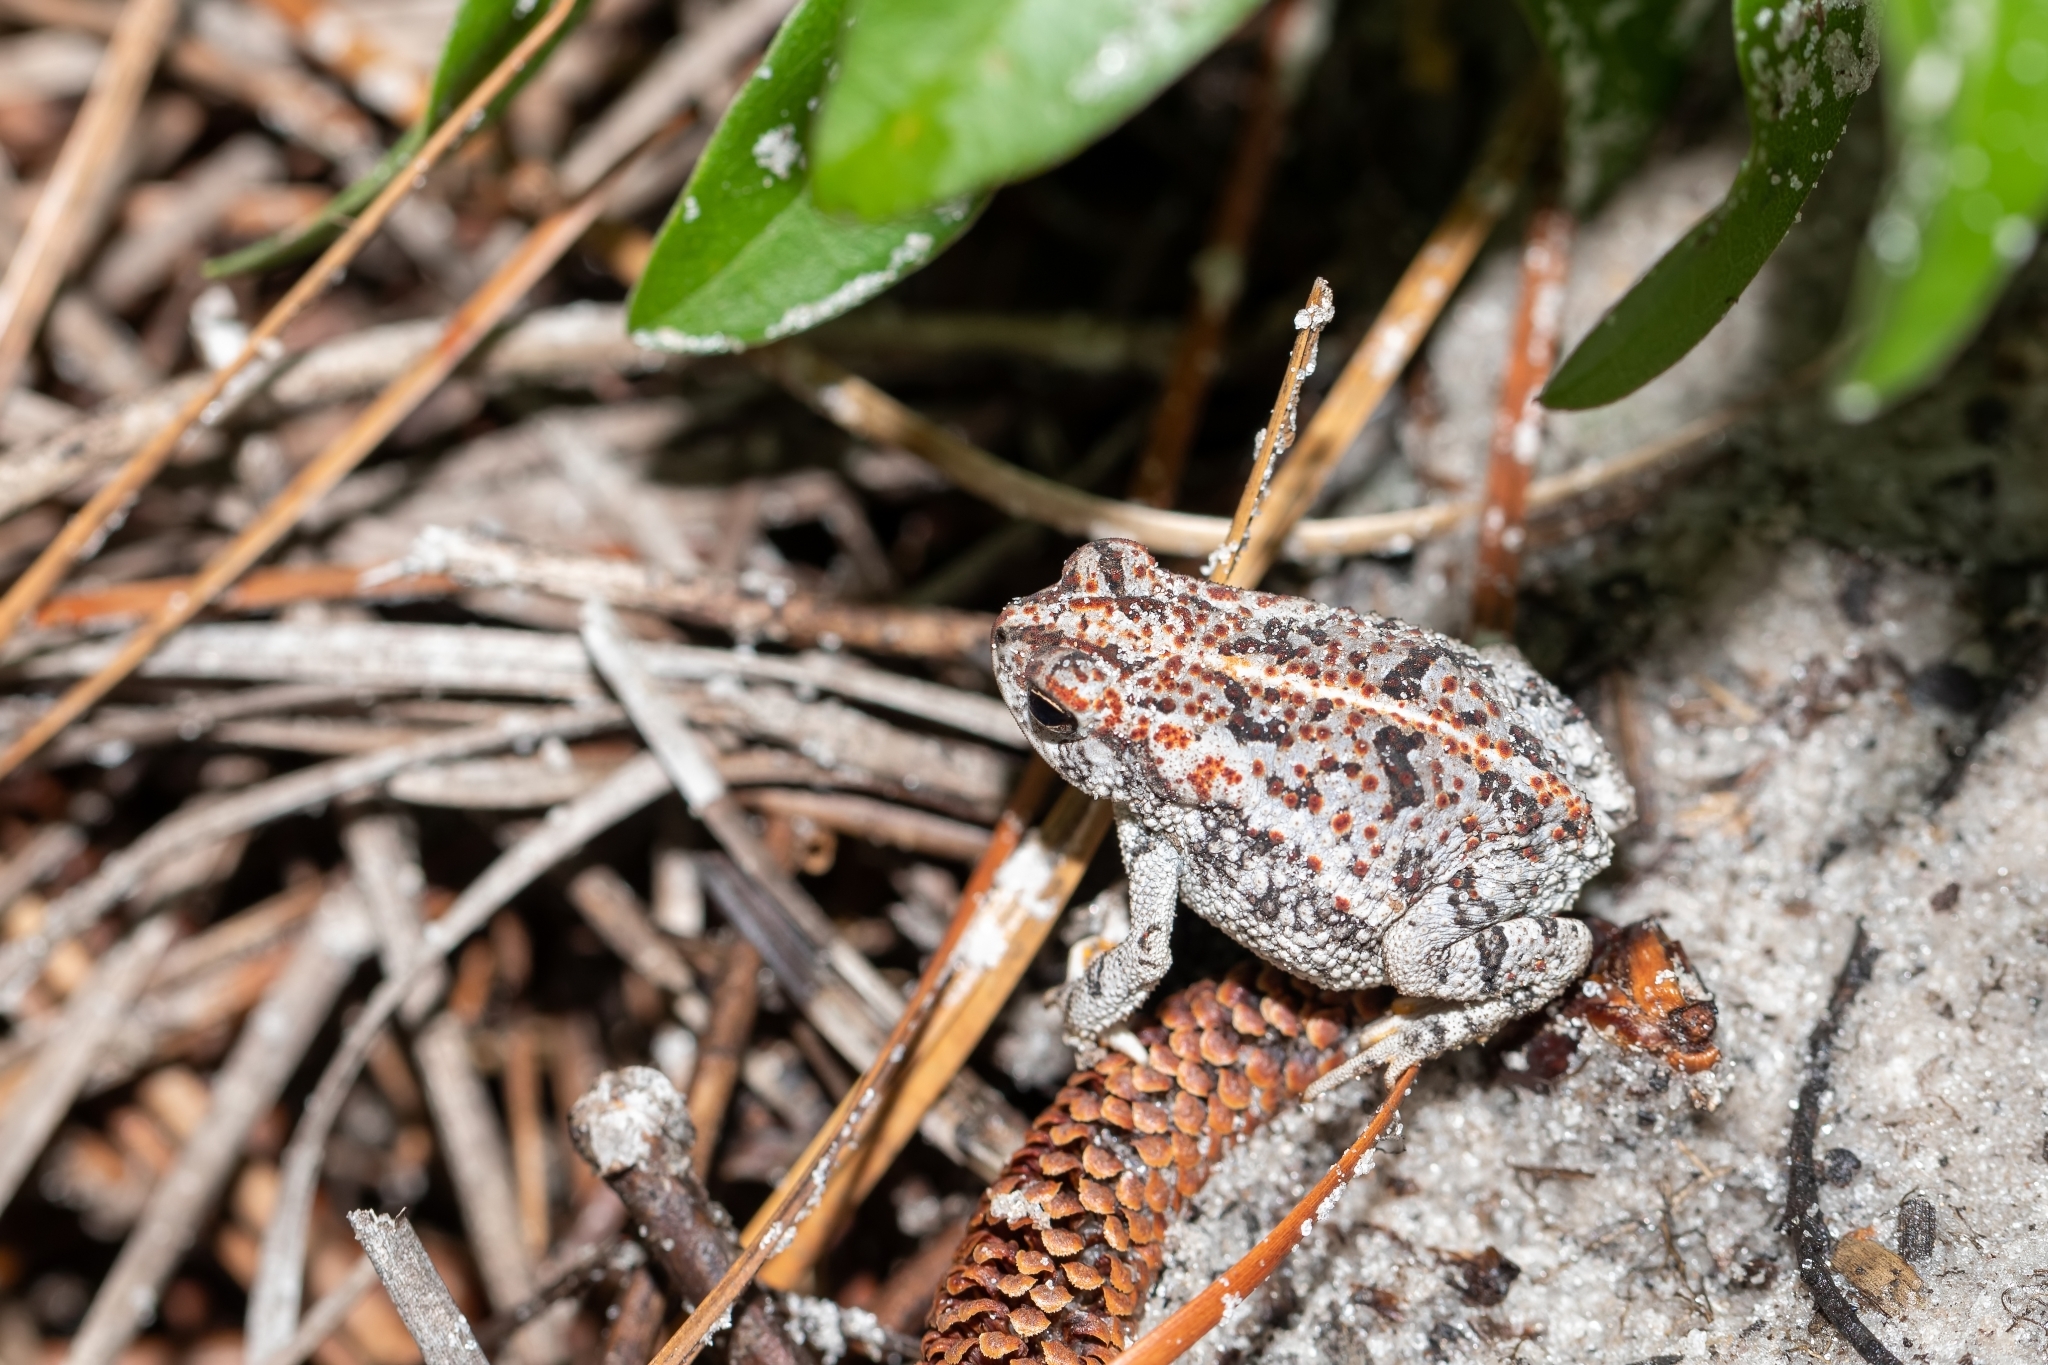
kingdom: Animalia
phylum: Chordata
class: Amphibia
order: Anura
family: Bufonidae
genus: Anaxyrus
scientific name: Anaxyrus quercicus
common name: Oak toad
